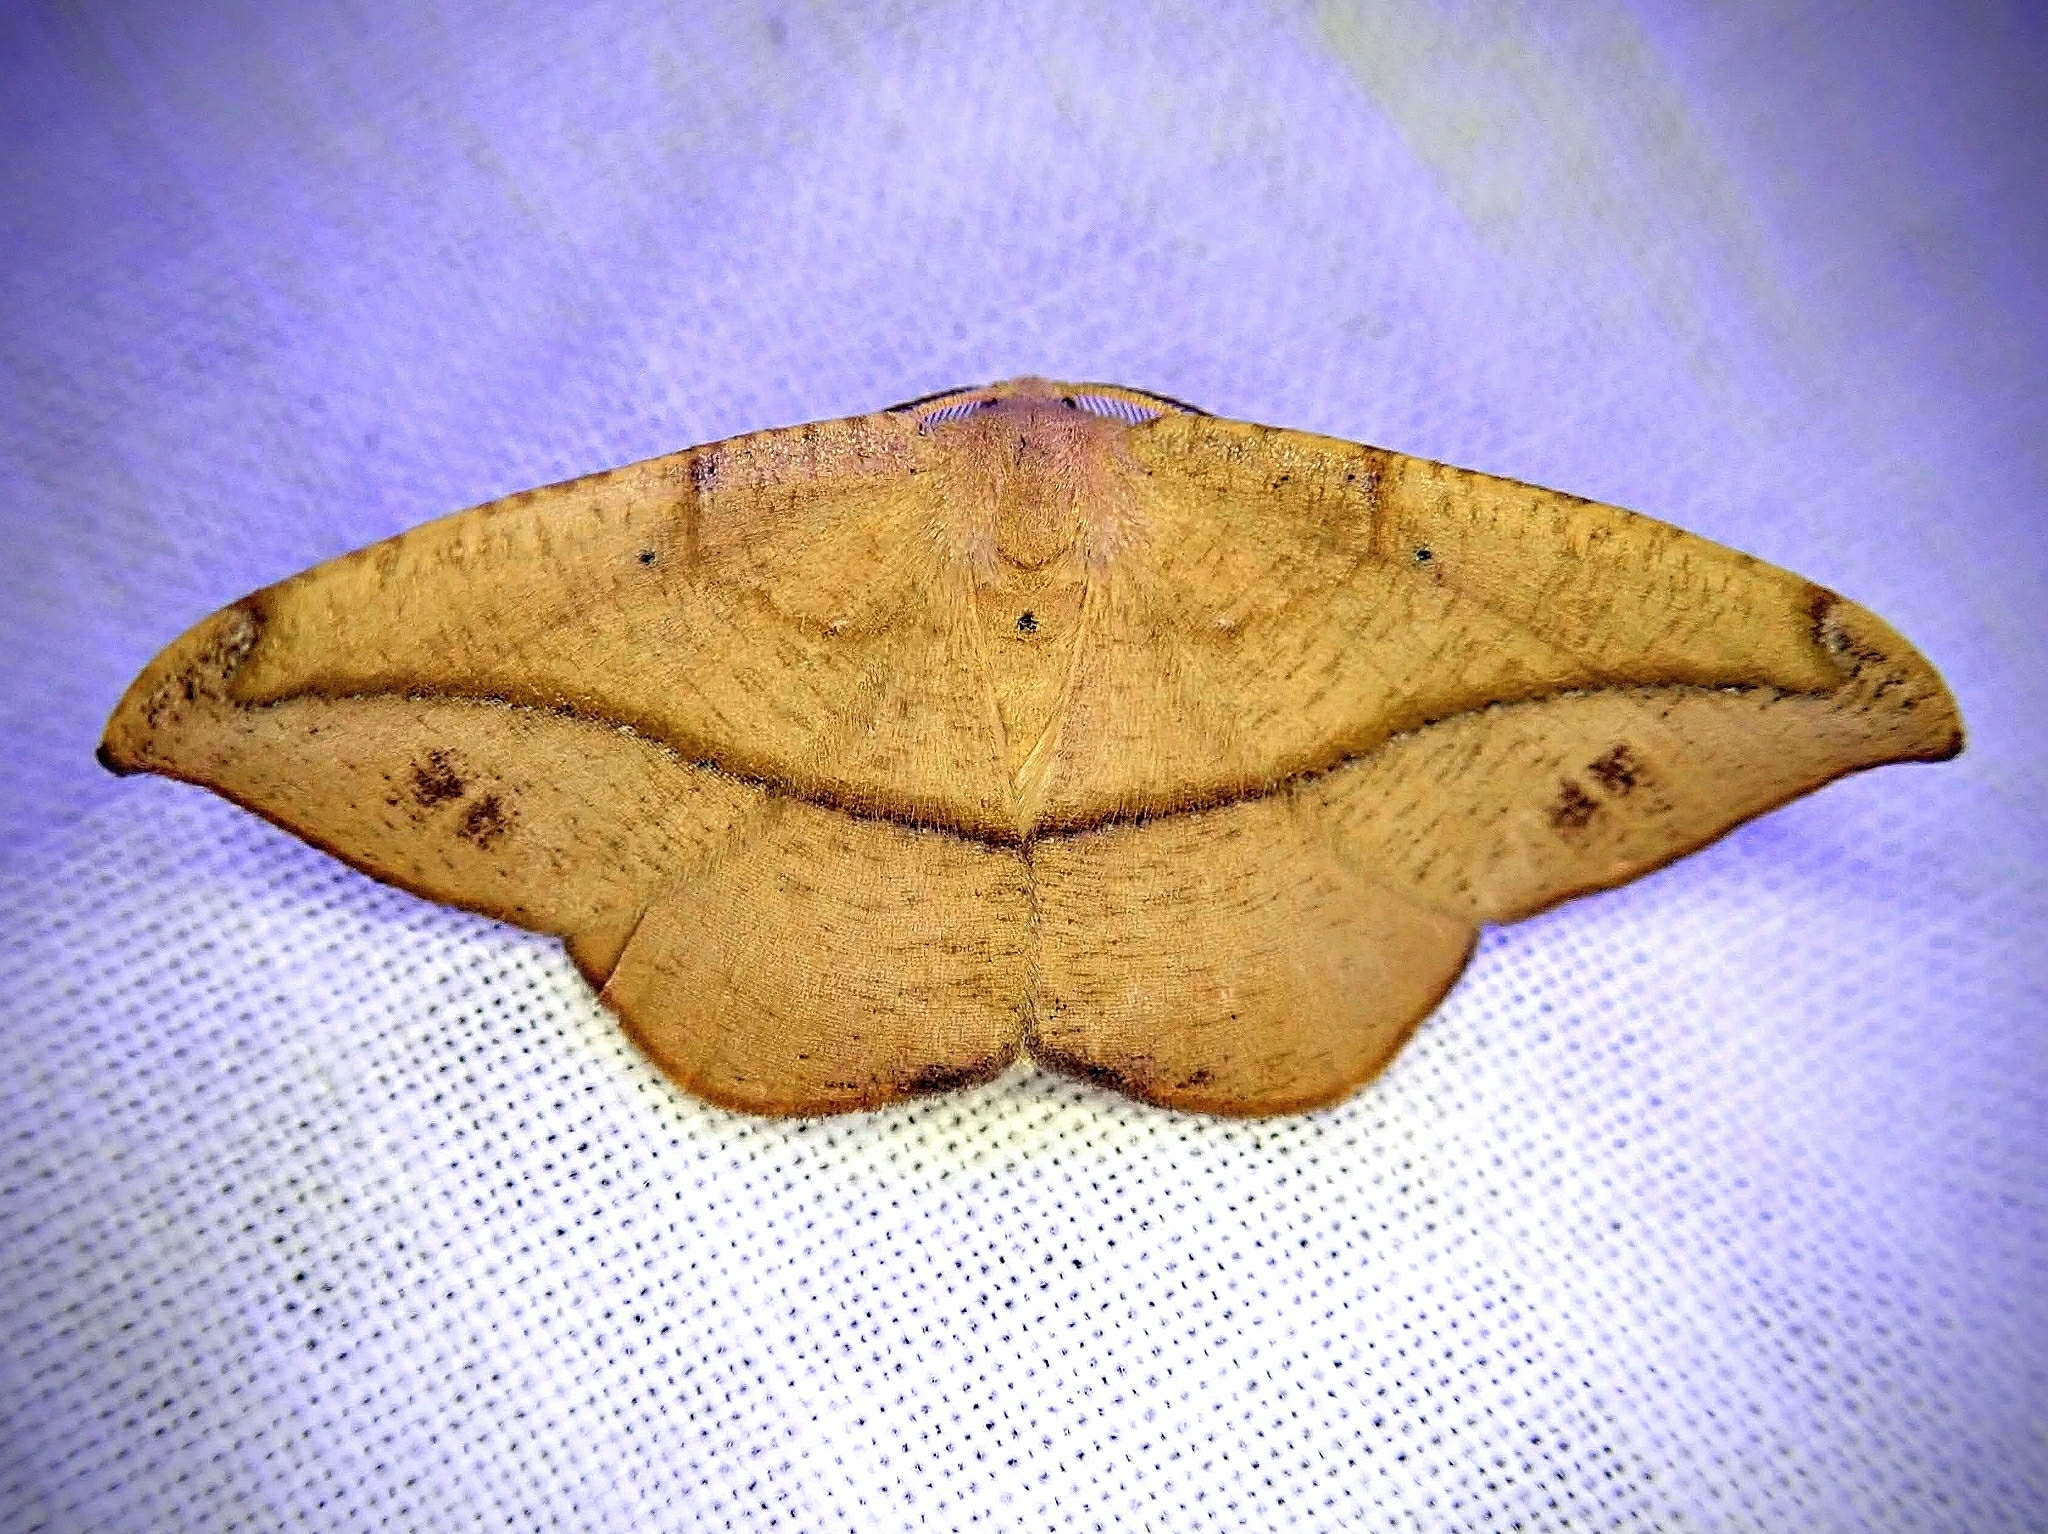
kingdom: Animalia
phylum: Arthropoda
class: Insecta
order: Lepidoptera
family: Geometridae
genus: Patalene
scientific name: Patalene olyzonaria
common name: Juniper geometer moth
